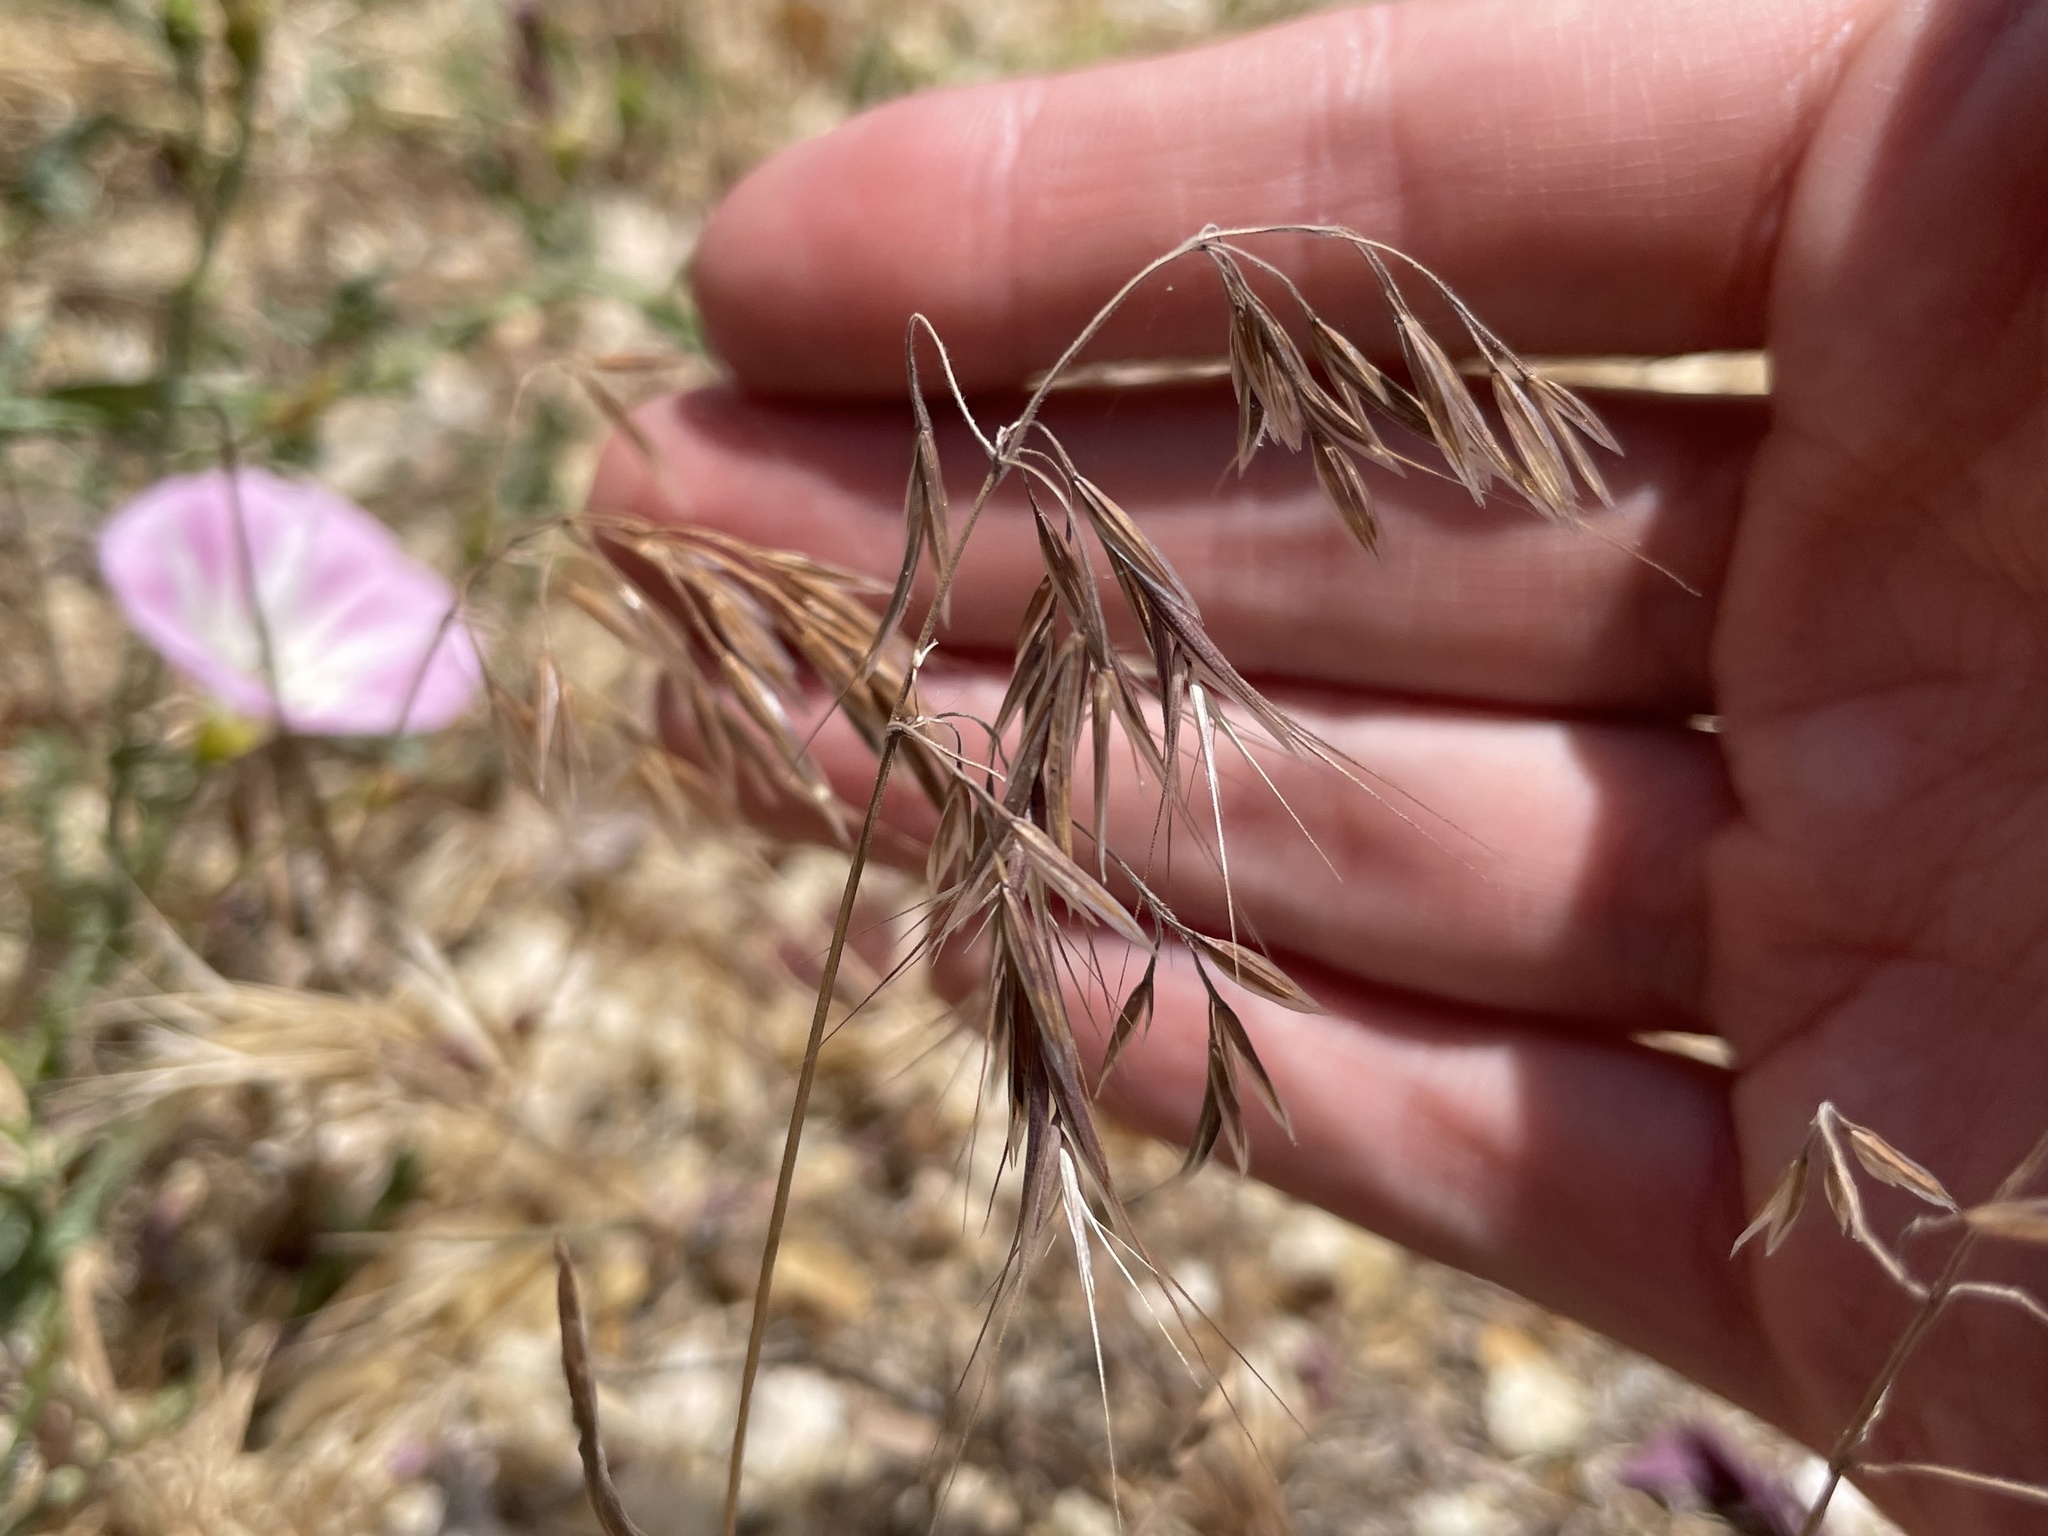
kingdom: Plantae
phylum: Tracheophyta
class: Liliopsida
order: Poales
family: Poaceae
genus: Bromus
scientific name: Bromus tectorum
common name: Cheatgrass
